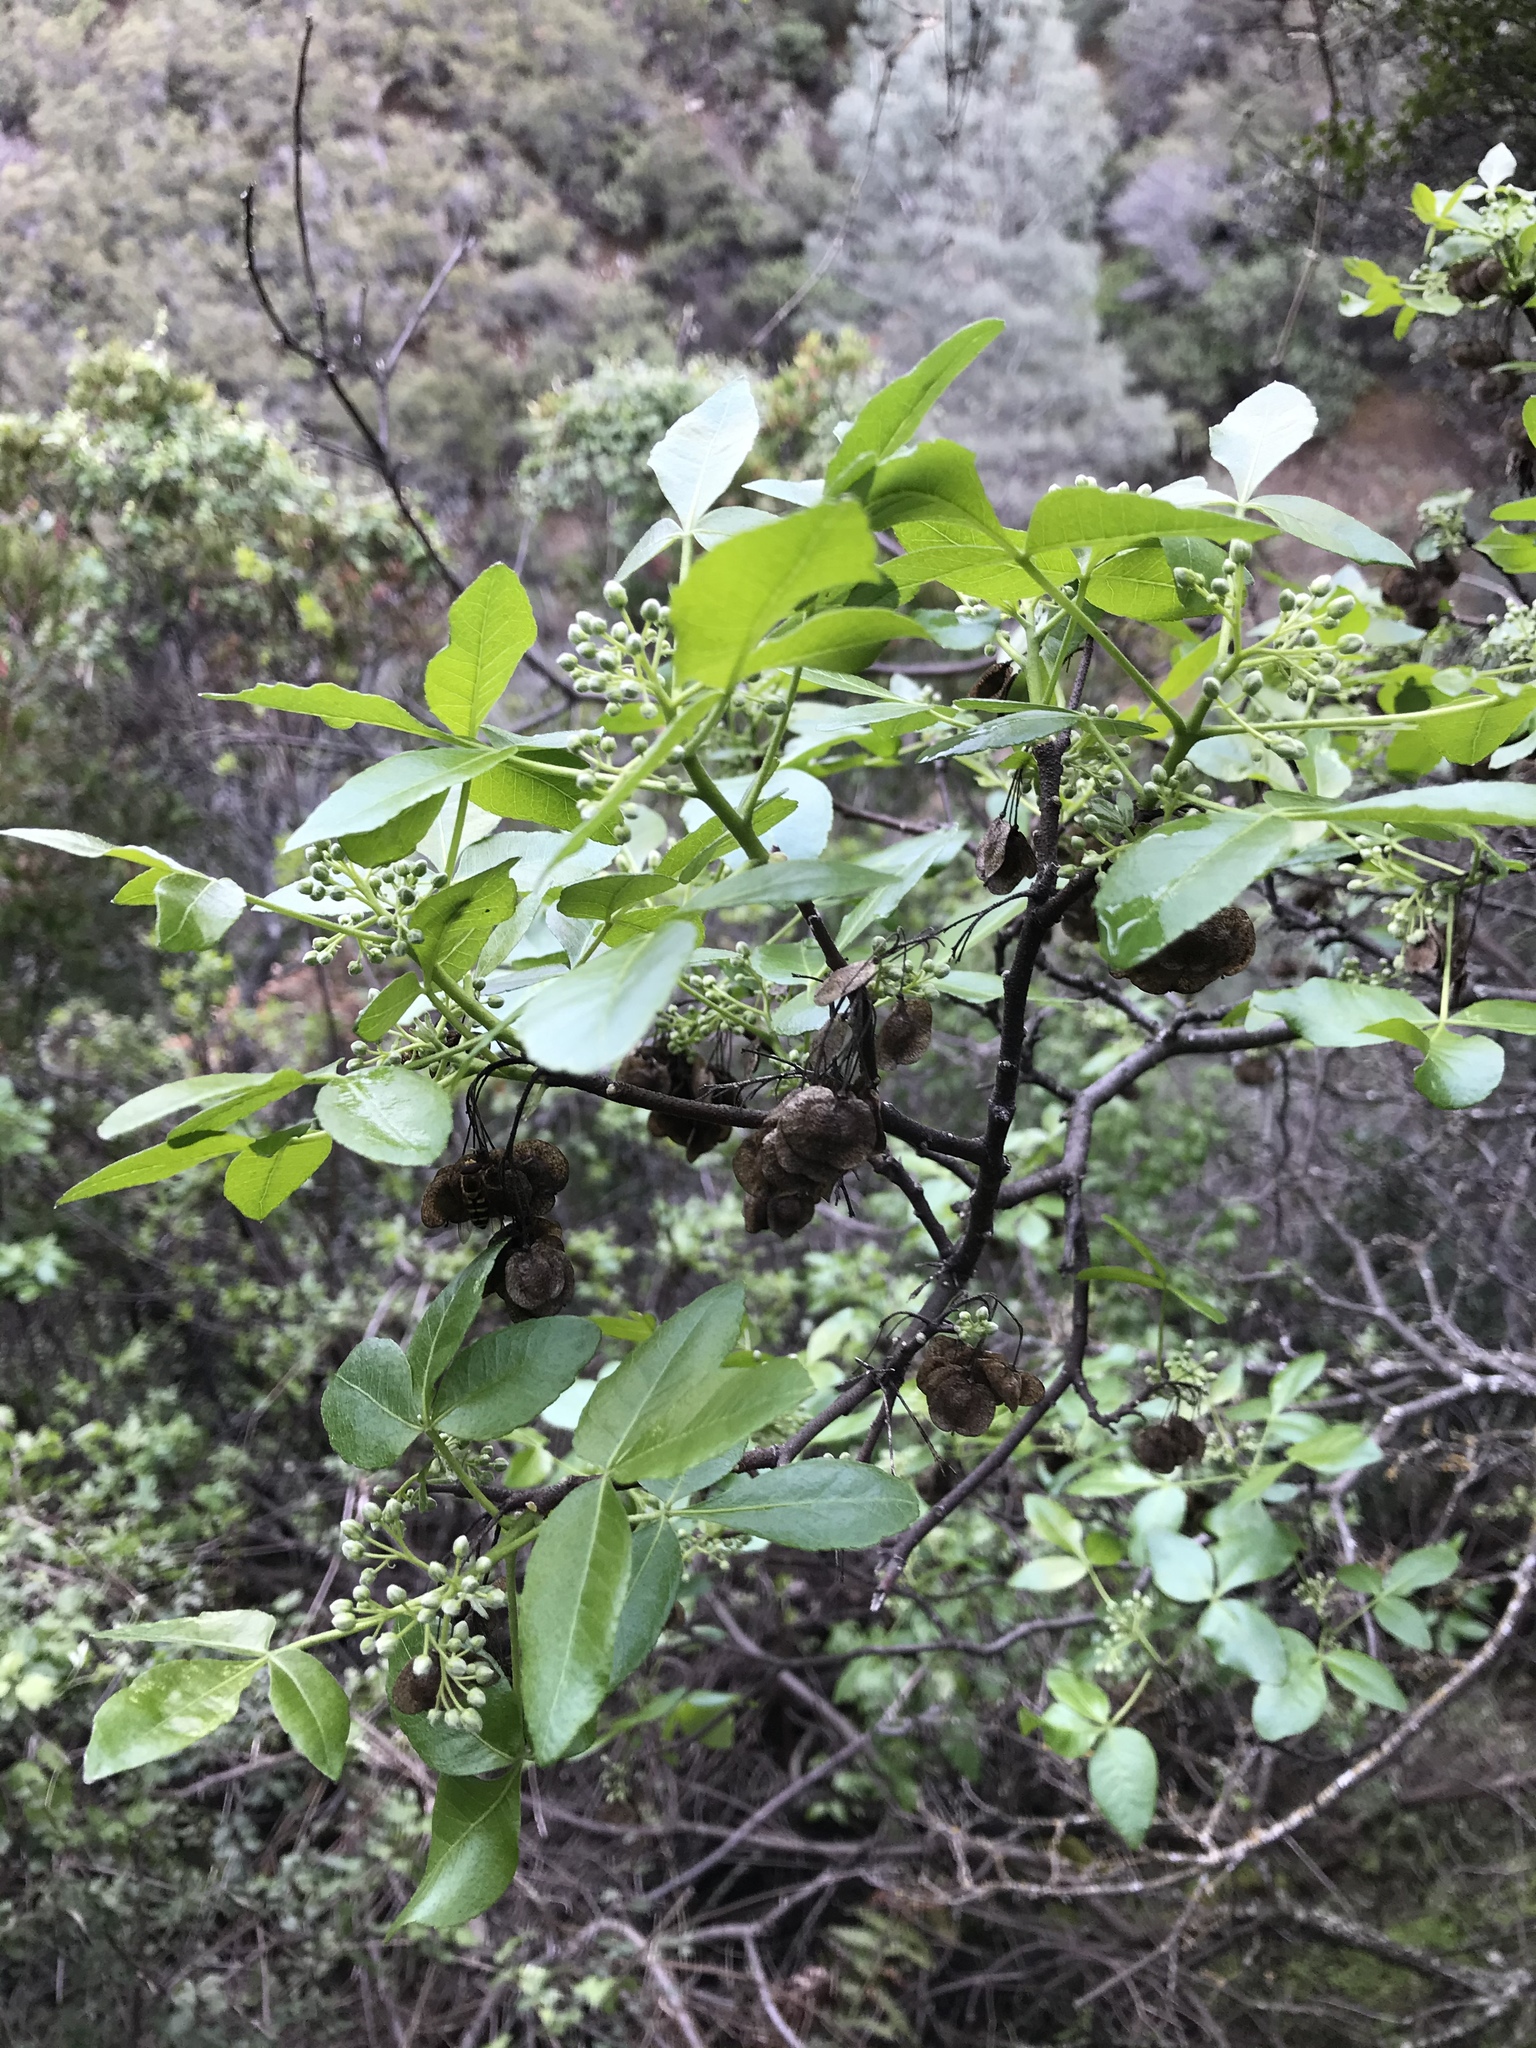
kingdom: Plantae
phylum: Tracheophyta
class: Magnoliopsida
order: Sapindales
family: Rutaceae
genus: Ptelea
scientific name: Ptelea crenulata
